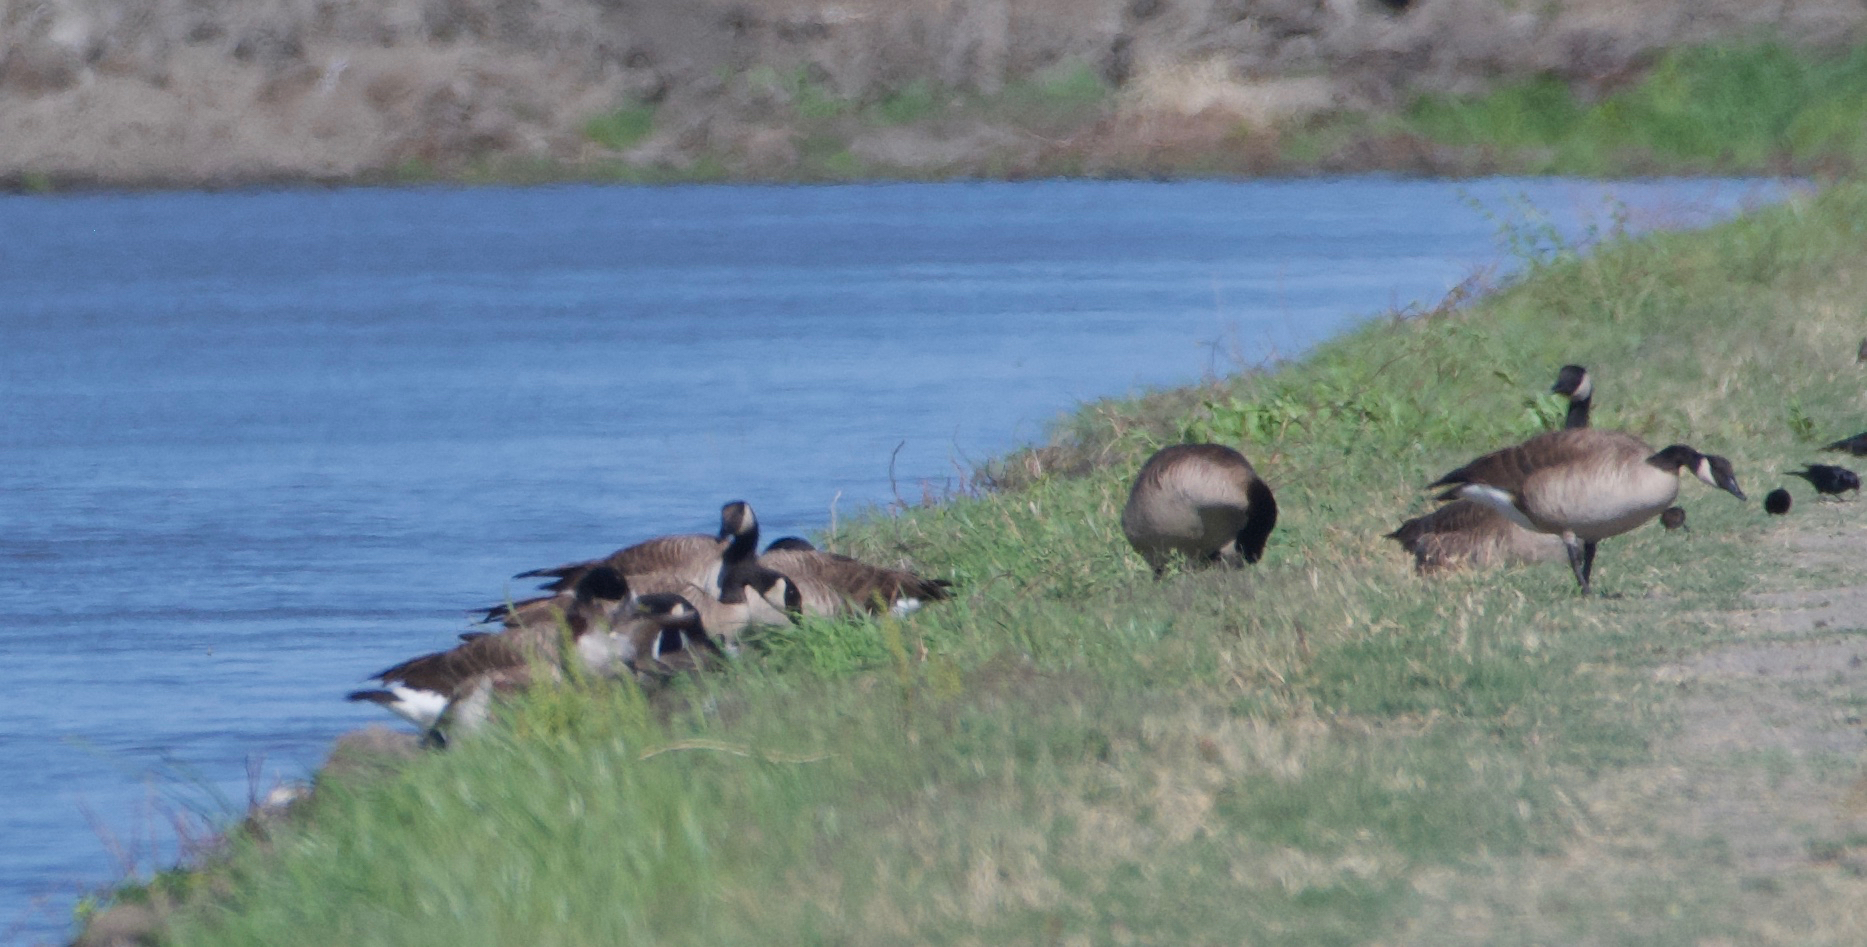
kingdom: Animalia
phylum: Chordata
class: Aves
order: Anseriformes
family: Anatidae
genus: Branta
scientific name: Branta canadensis
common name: Canada goose
